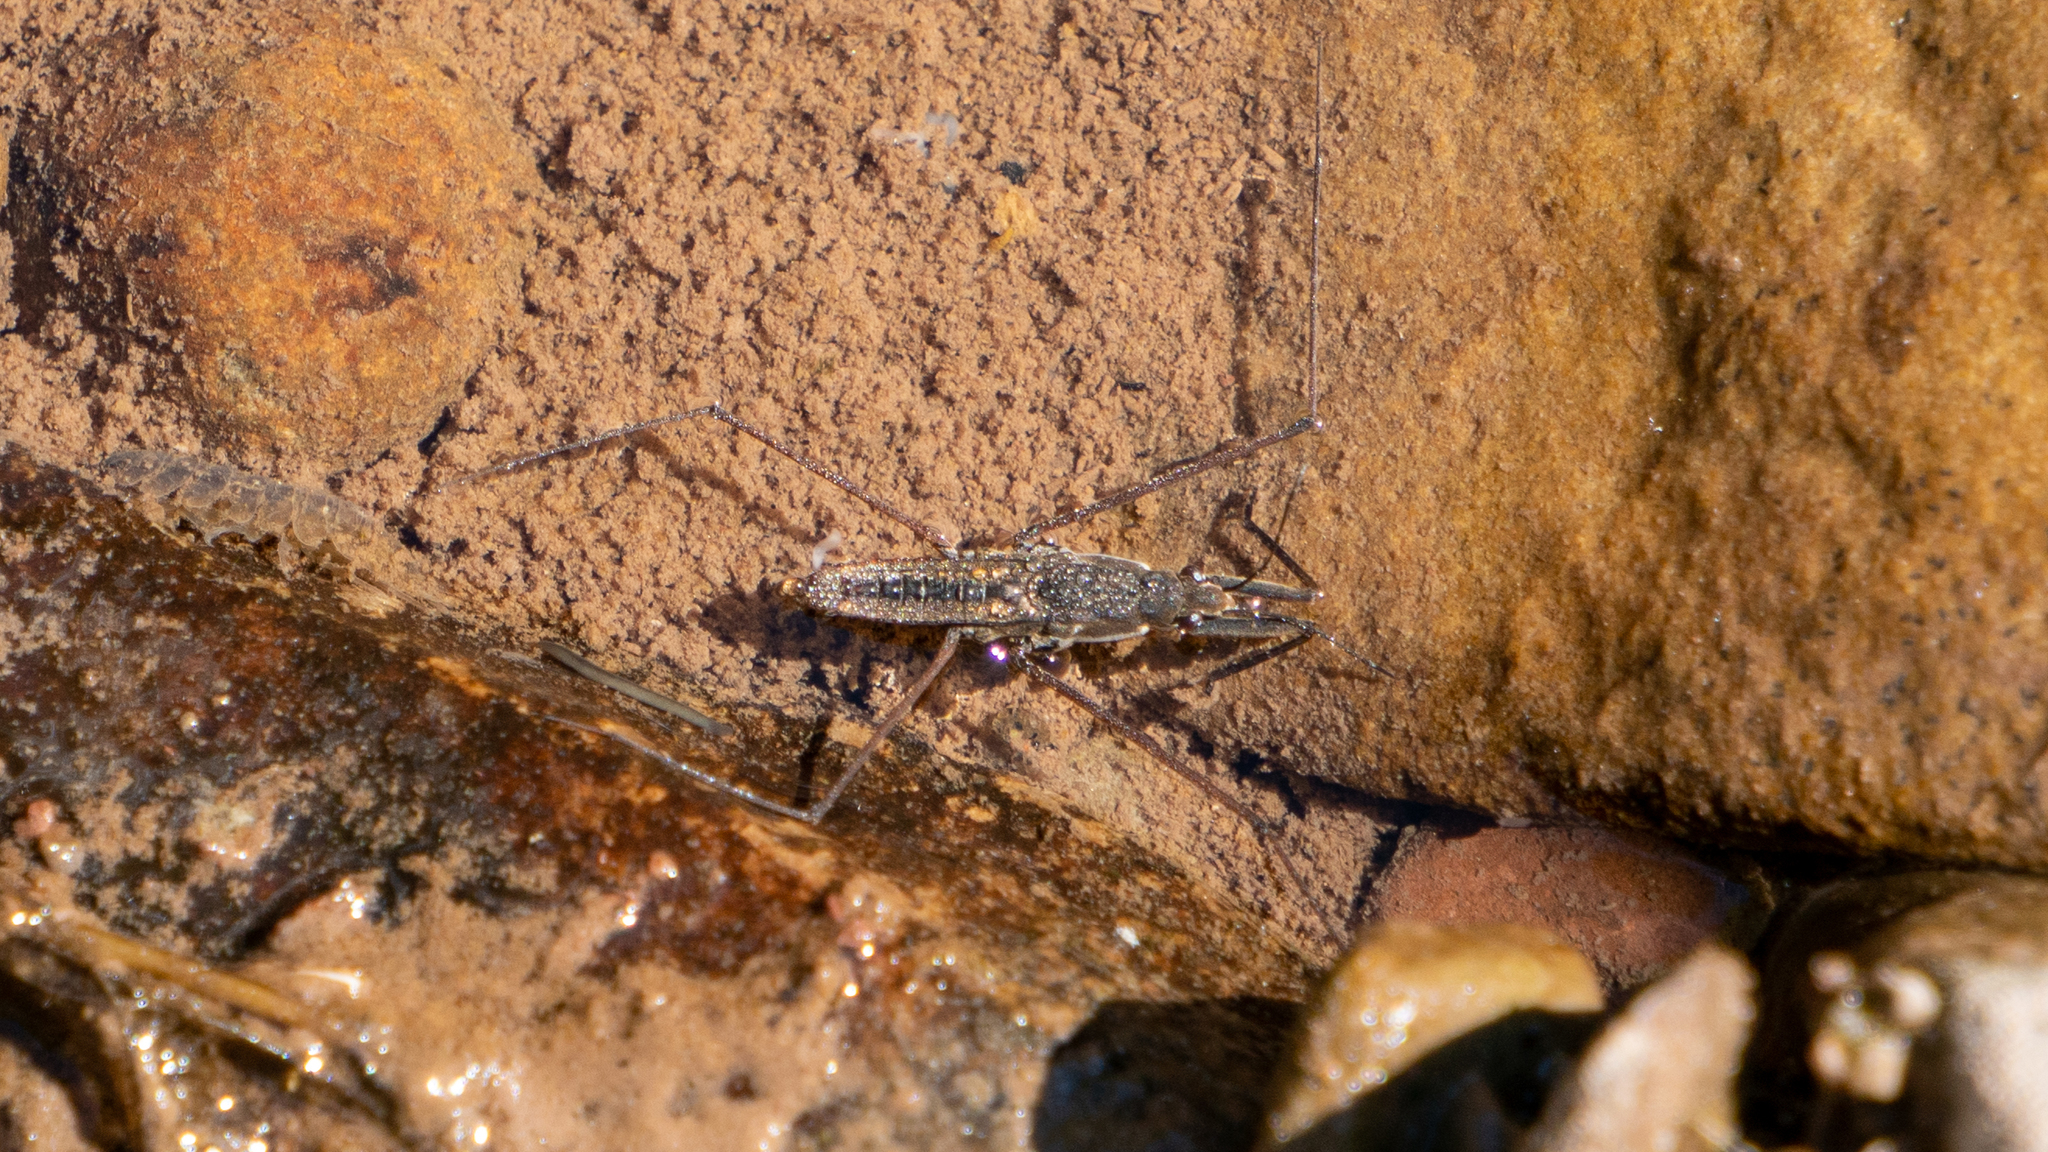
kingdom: Animalia
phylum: Arthropoda
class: Insecta
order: Hemiptera
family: Gerridae
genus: Aquarius
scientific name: Aquarius remigis
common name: Common water strider
